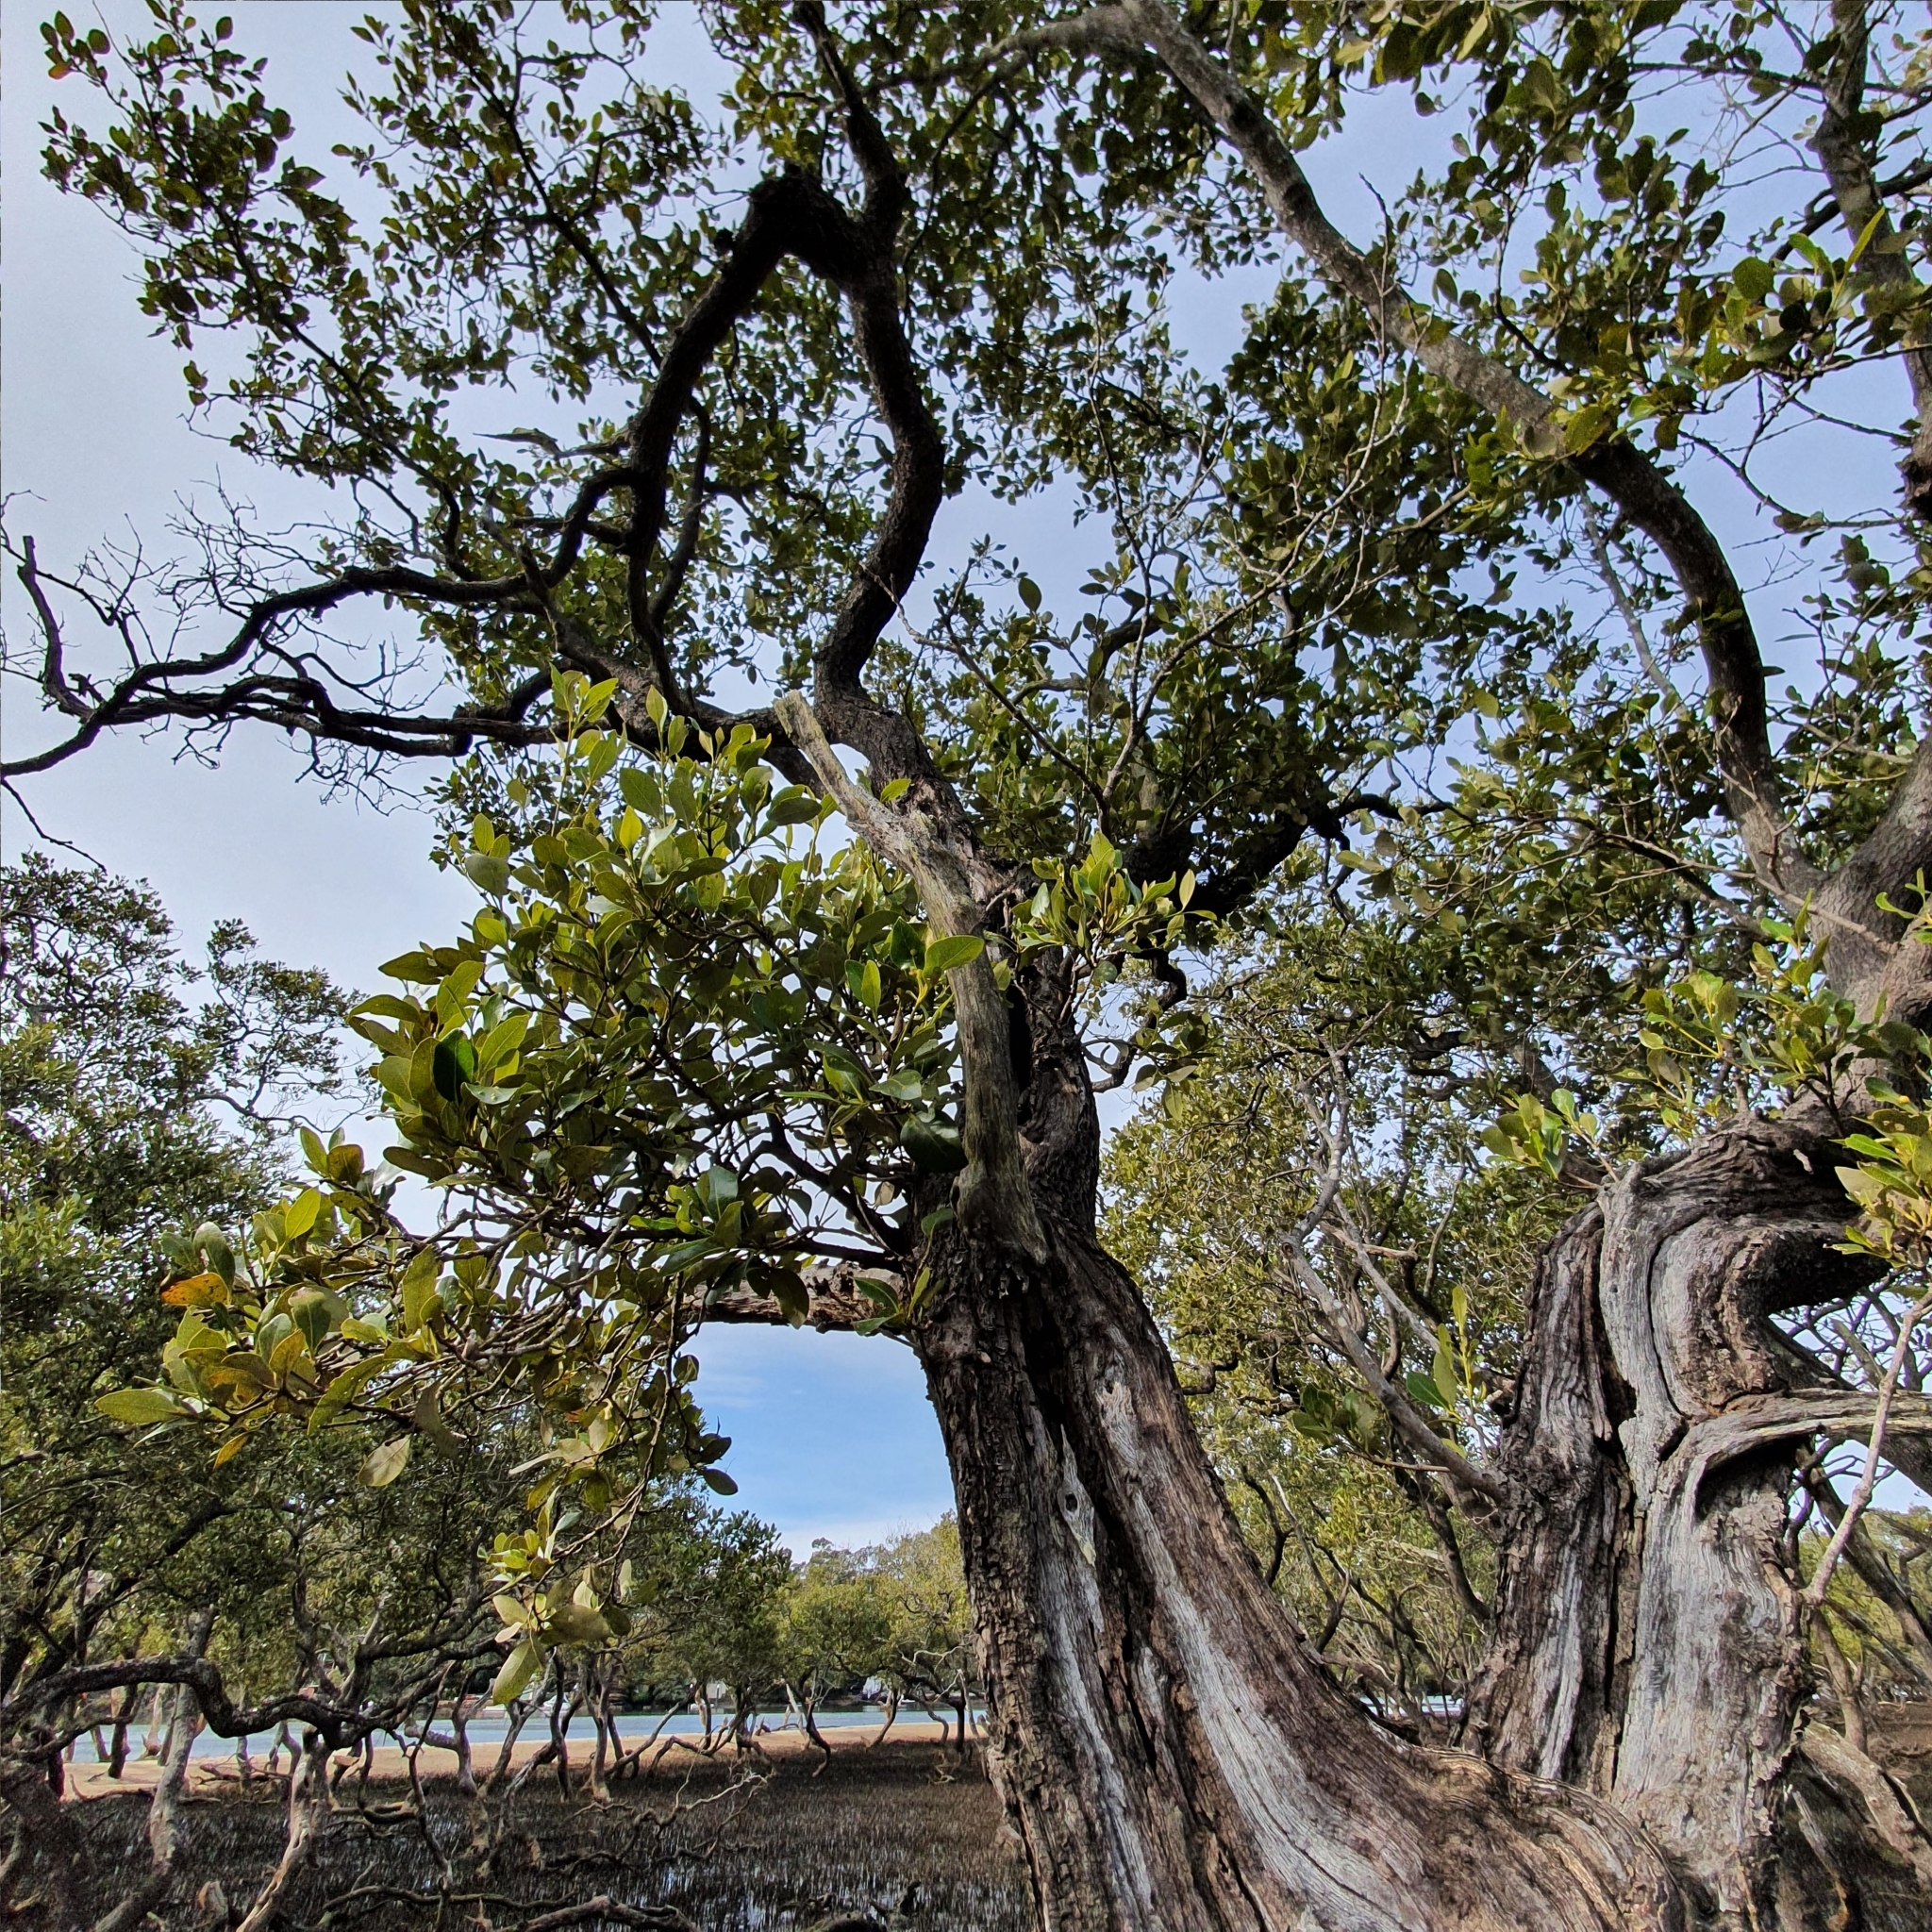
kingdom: Plantae
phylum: Tracheophyta
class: Magnoliopsida
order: Lamiales
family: Acanthaceae
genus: Avicennia
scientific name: Avicennia marina
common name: Gray mangrove
